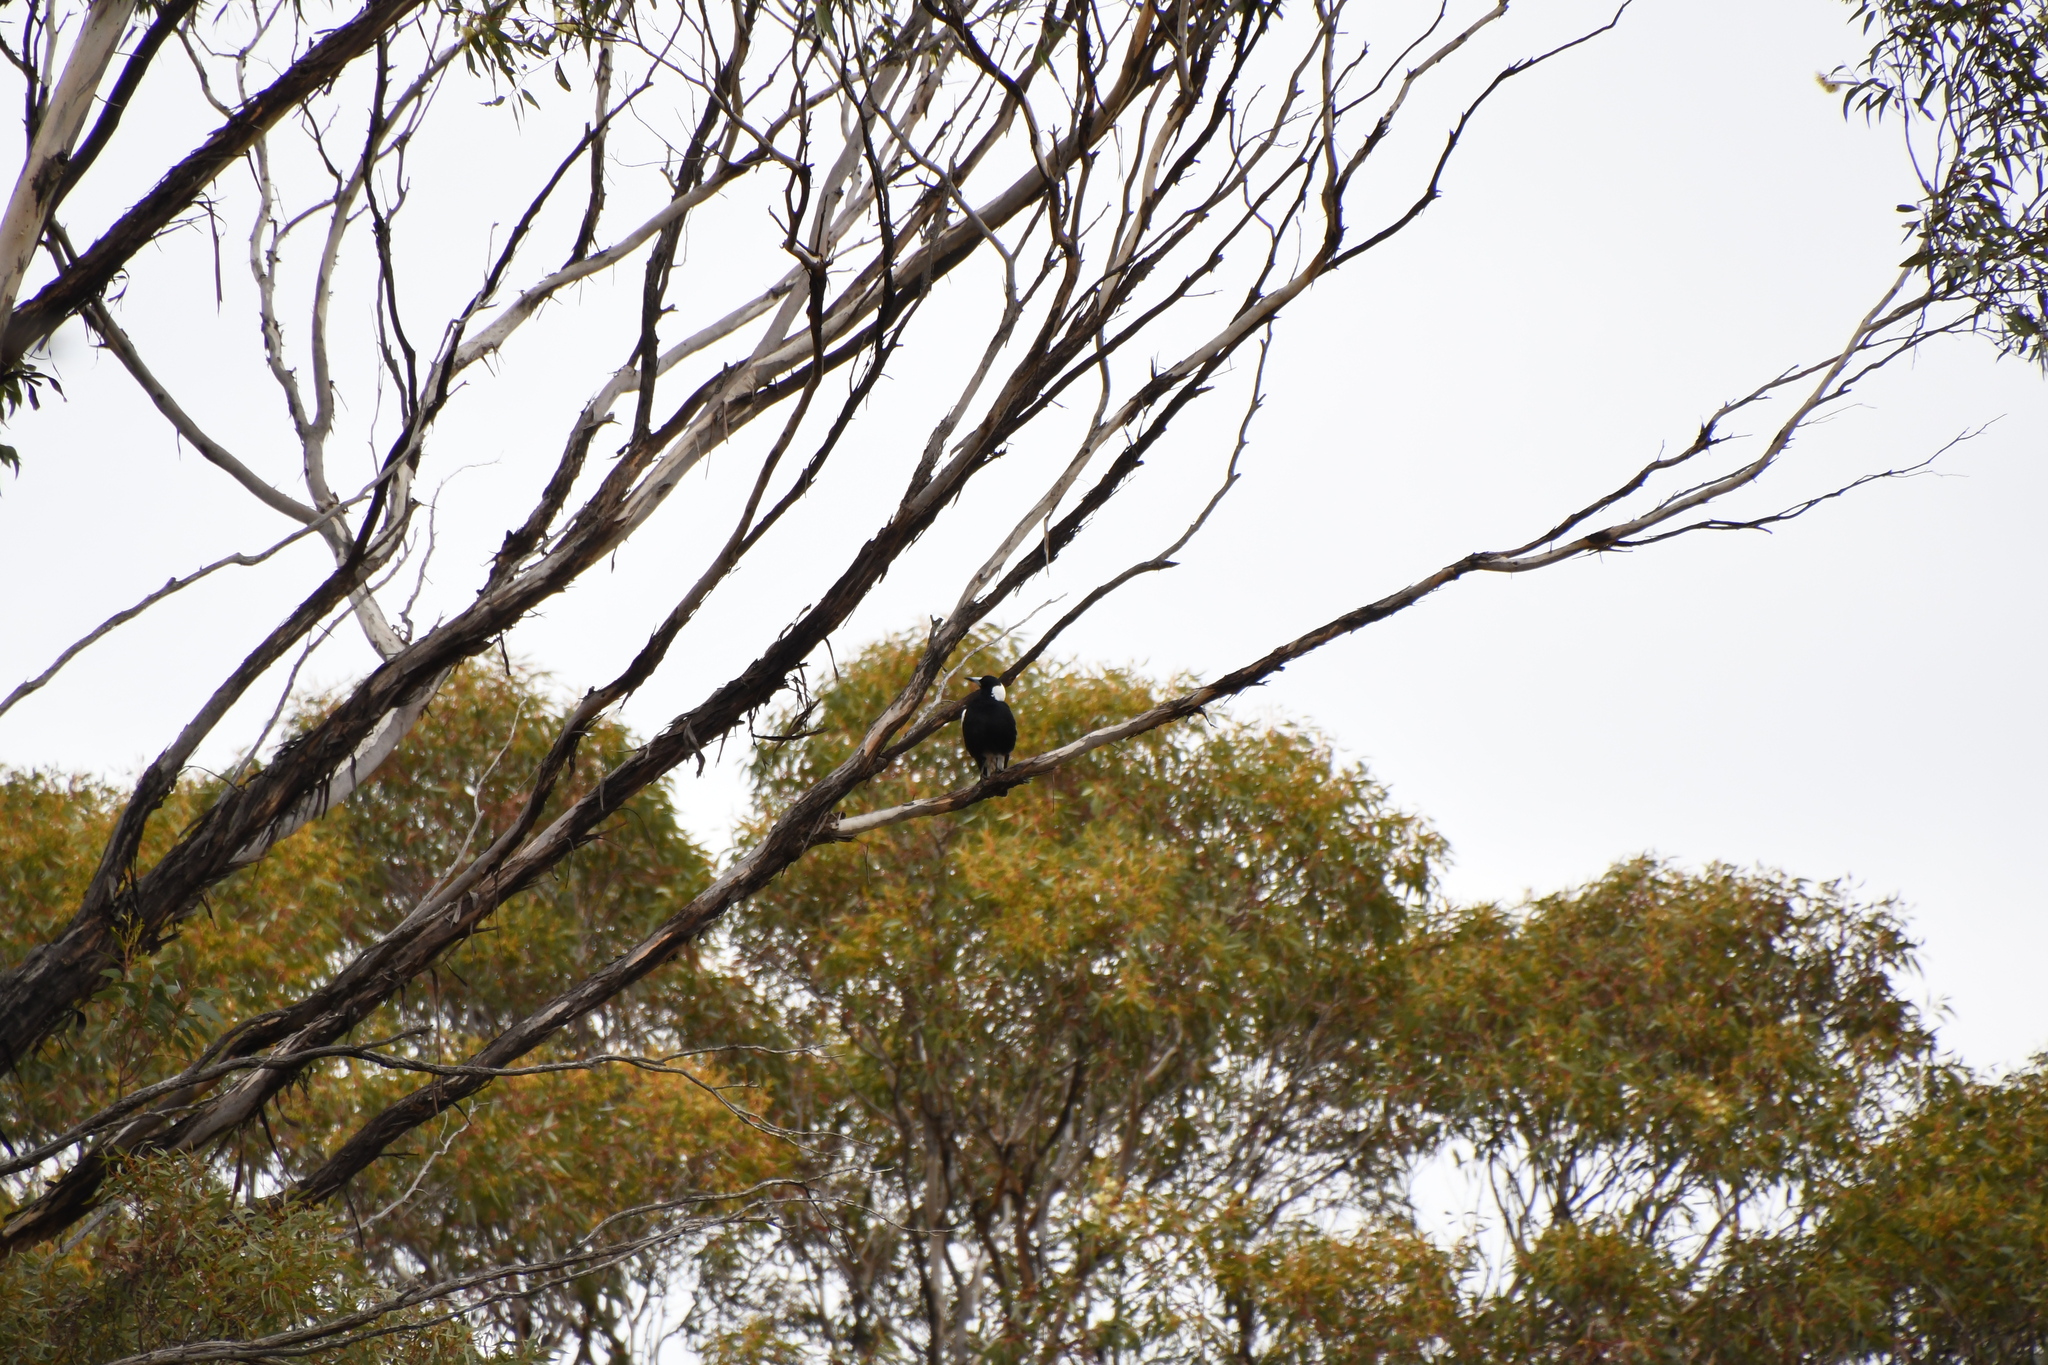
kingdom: Animalia
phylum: Chordata
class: Aves
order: Passeriformes
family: Cracticidae
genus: Gymnorhina
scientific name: Gymnorhina tibicen
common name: Australian magpie
